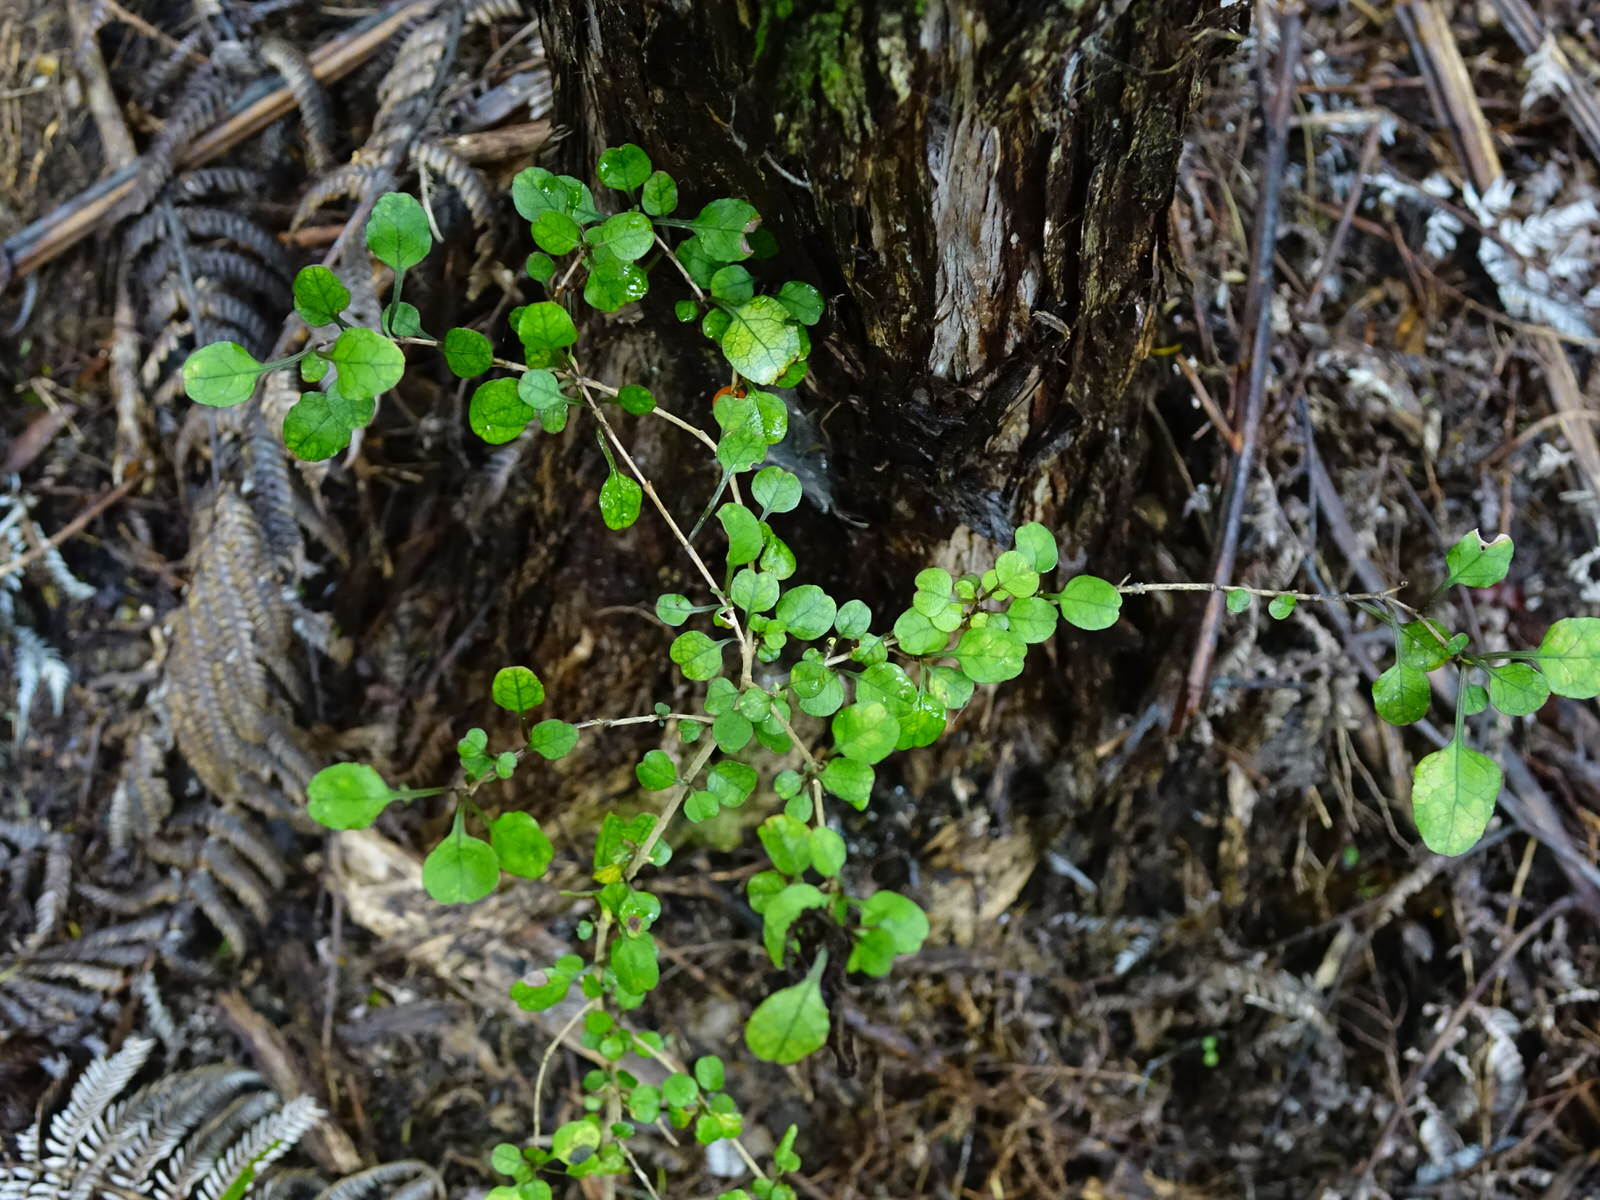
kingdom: Plantae
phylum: Tracheophyta
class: Magnoliopsida
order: Gentianales
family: Rubiaceae
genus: Coprosma
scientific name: Coprosma spathulata
